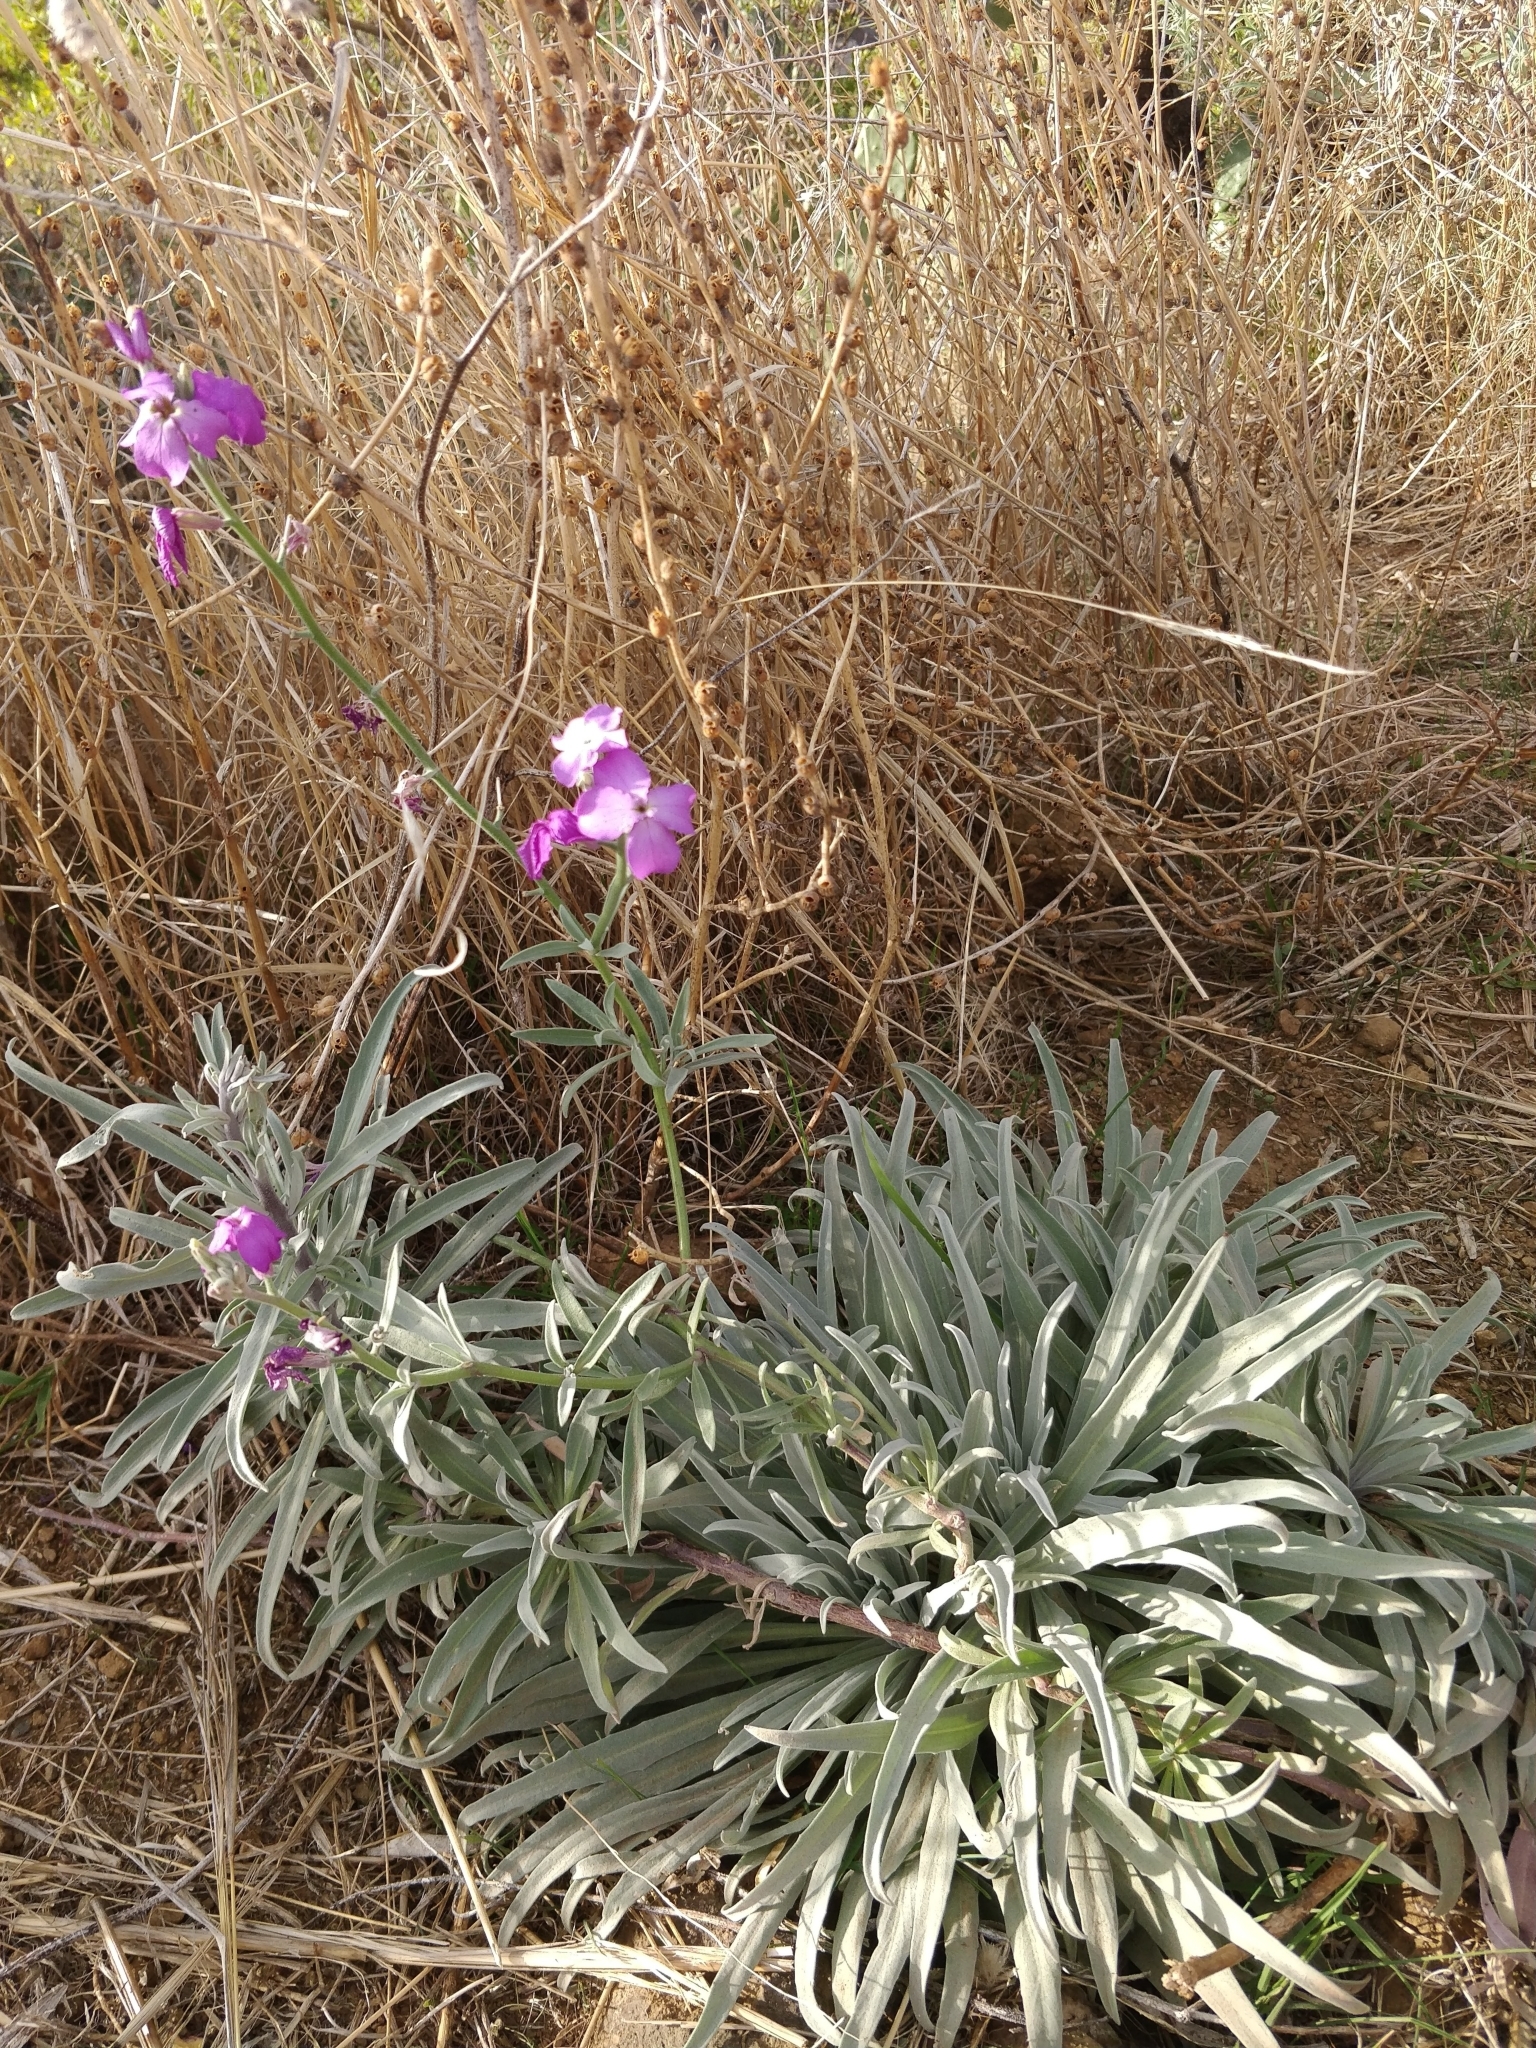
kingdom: Plantae
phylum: Tracheophyta
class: Magnoliopsida
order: Brassicales
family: Brassicaceae
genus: Matthiola
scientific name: Matthiola maderensis
